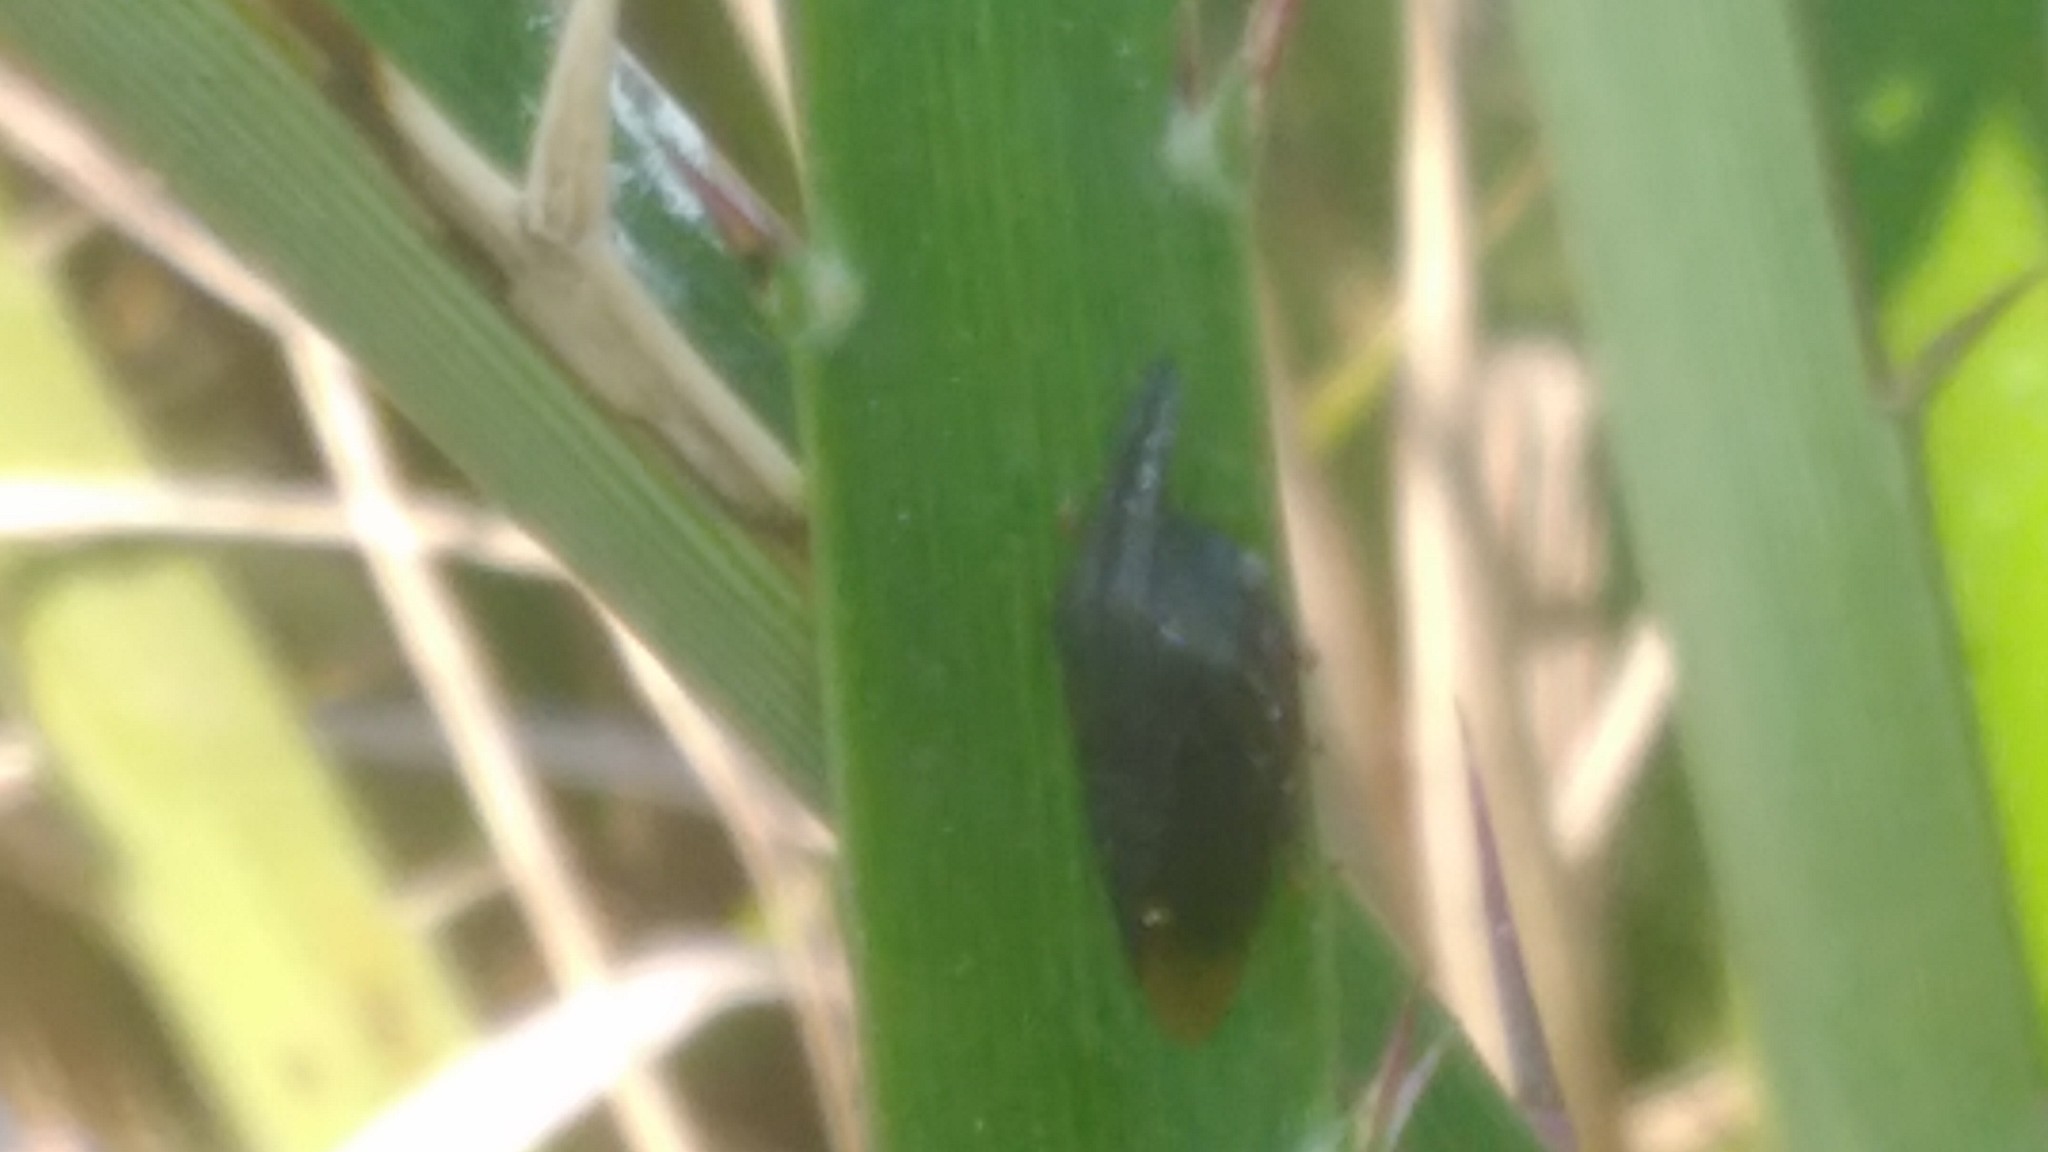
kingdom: Animalia
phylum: Arthropoda
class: Insecta
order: Hemiptera
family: Membracidae
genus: Kronides
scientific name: Kronides incumbens
